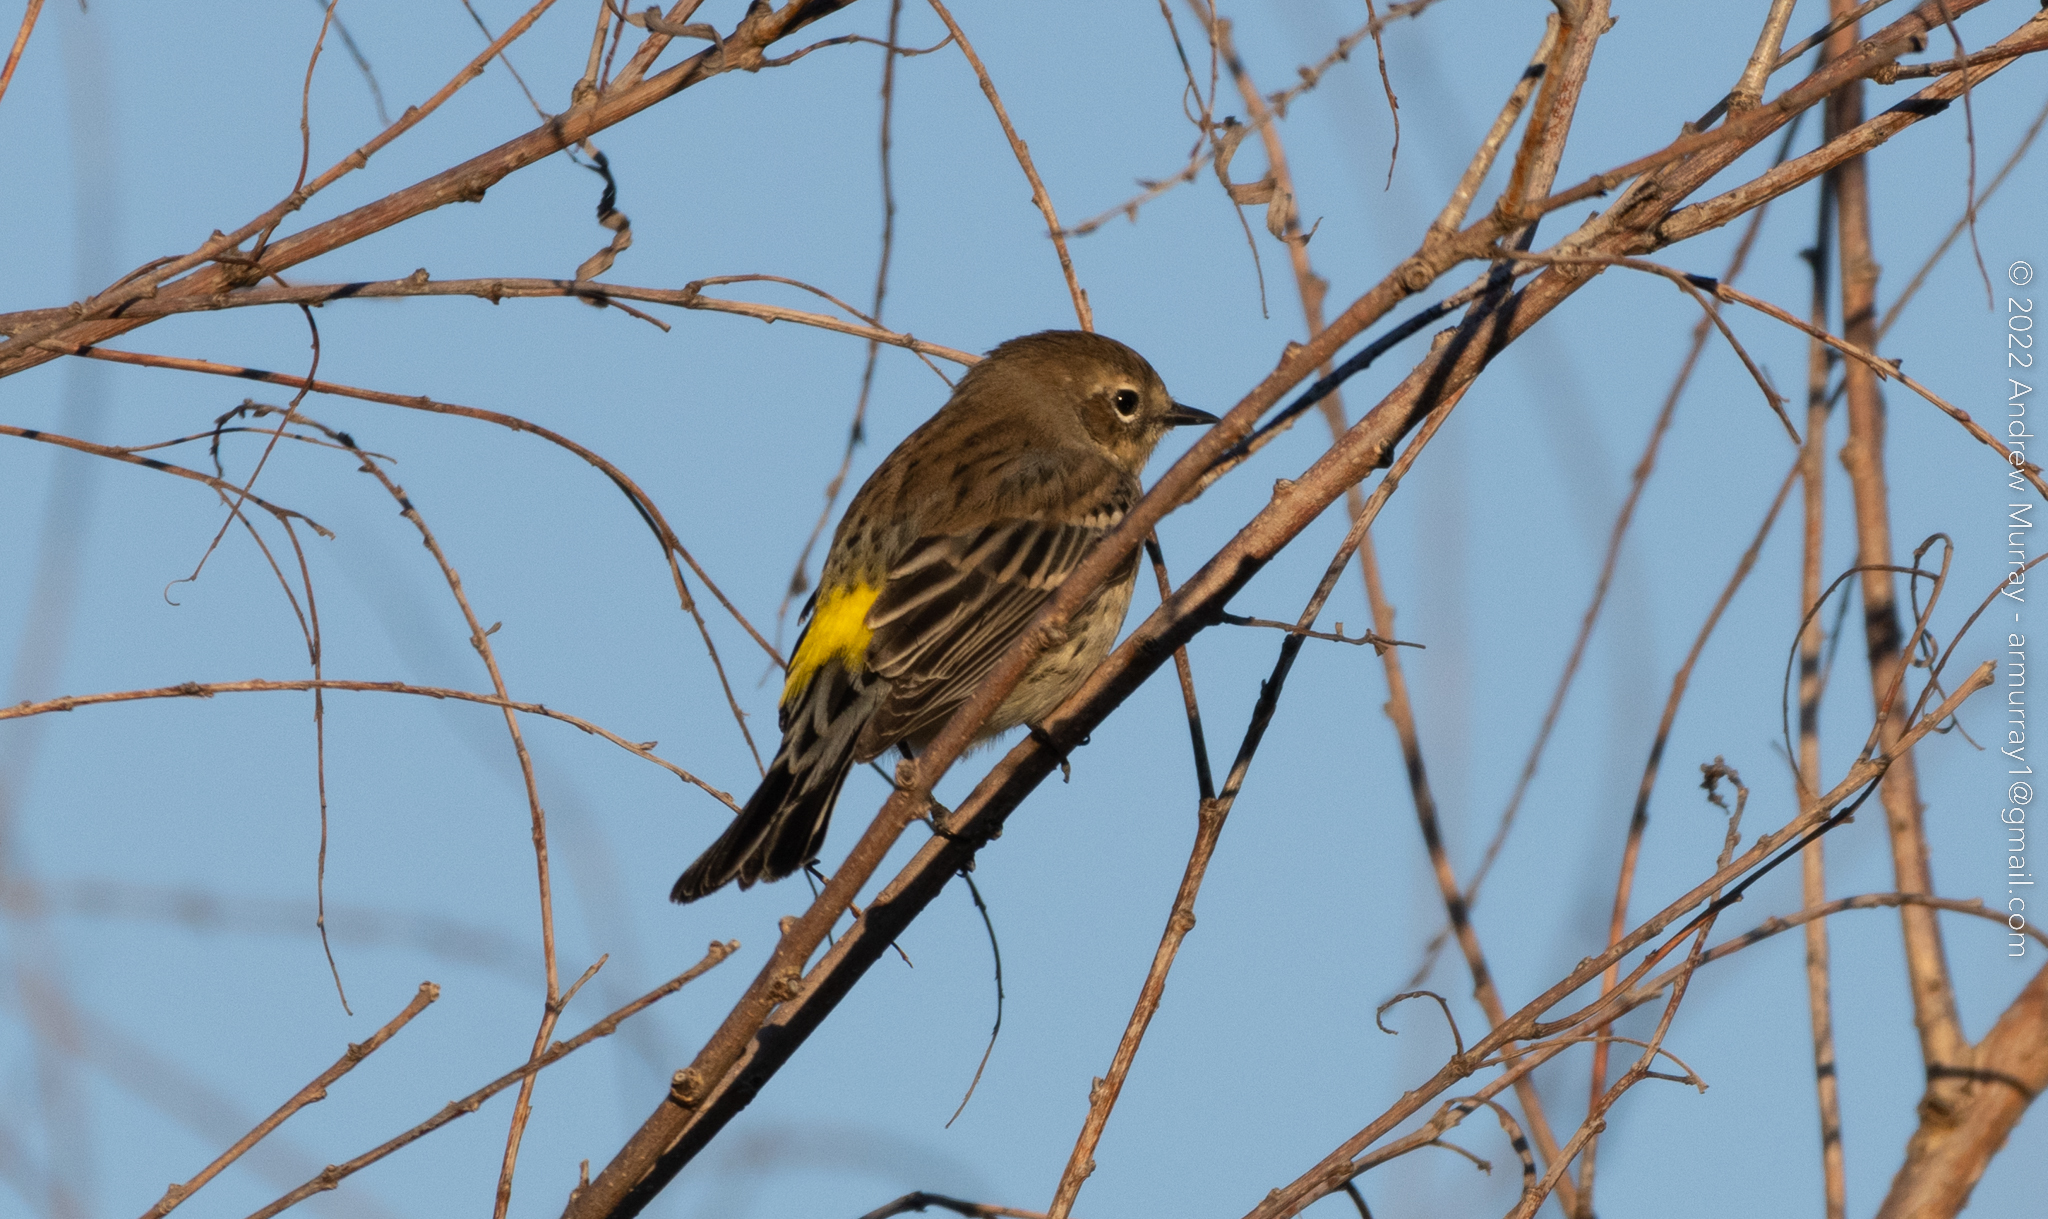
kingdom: Animalia
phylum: Chordata
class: Aves
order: Passeriformes
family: Parulidae
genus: Setophaga
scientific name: Setophaga coronata
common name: Myrtle warbler
